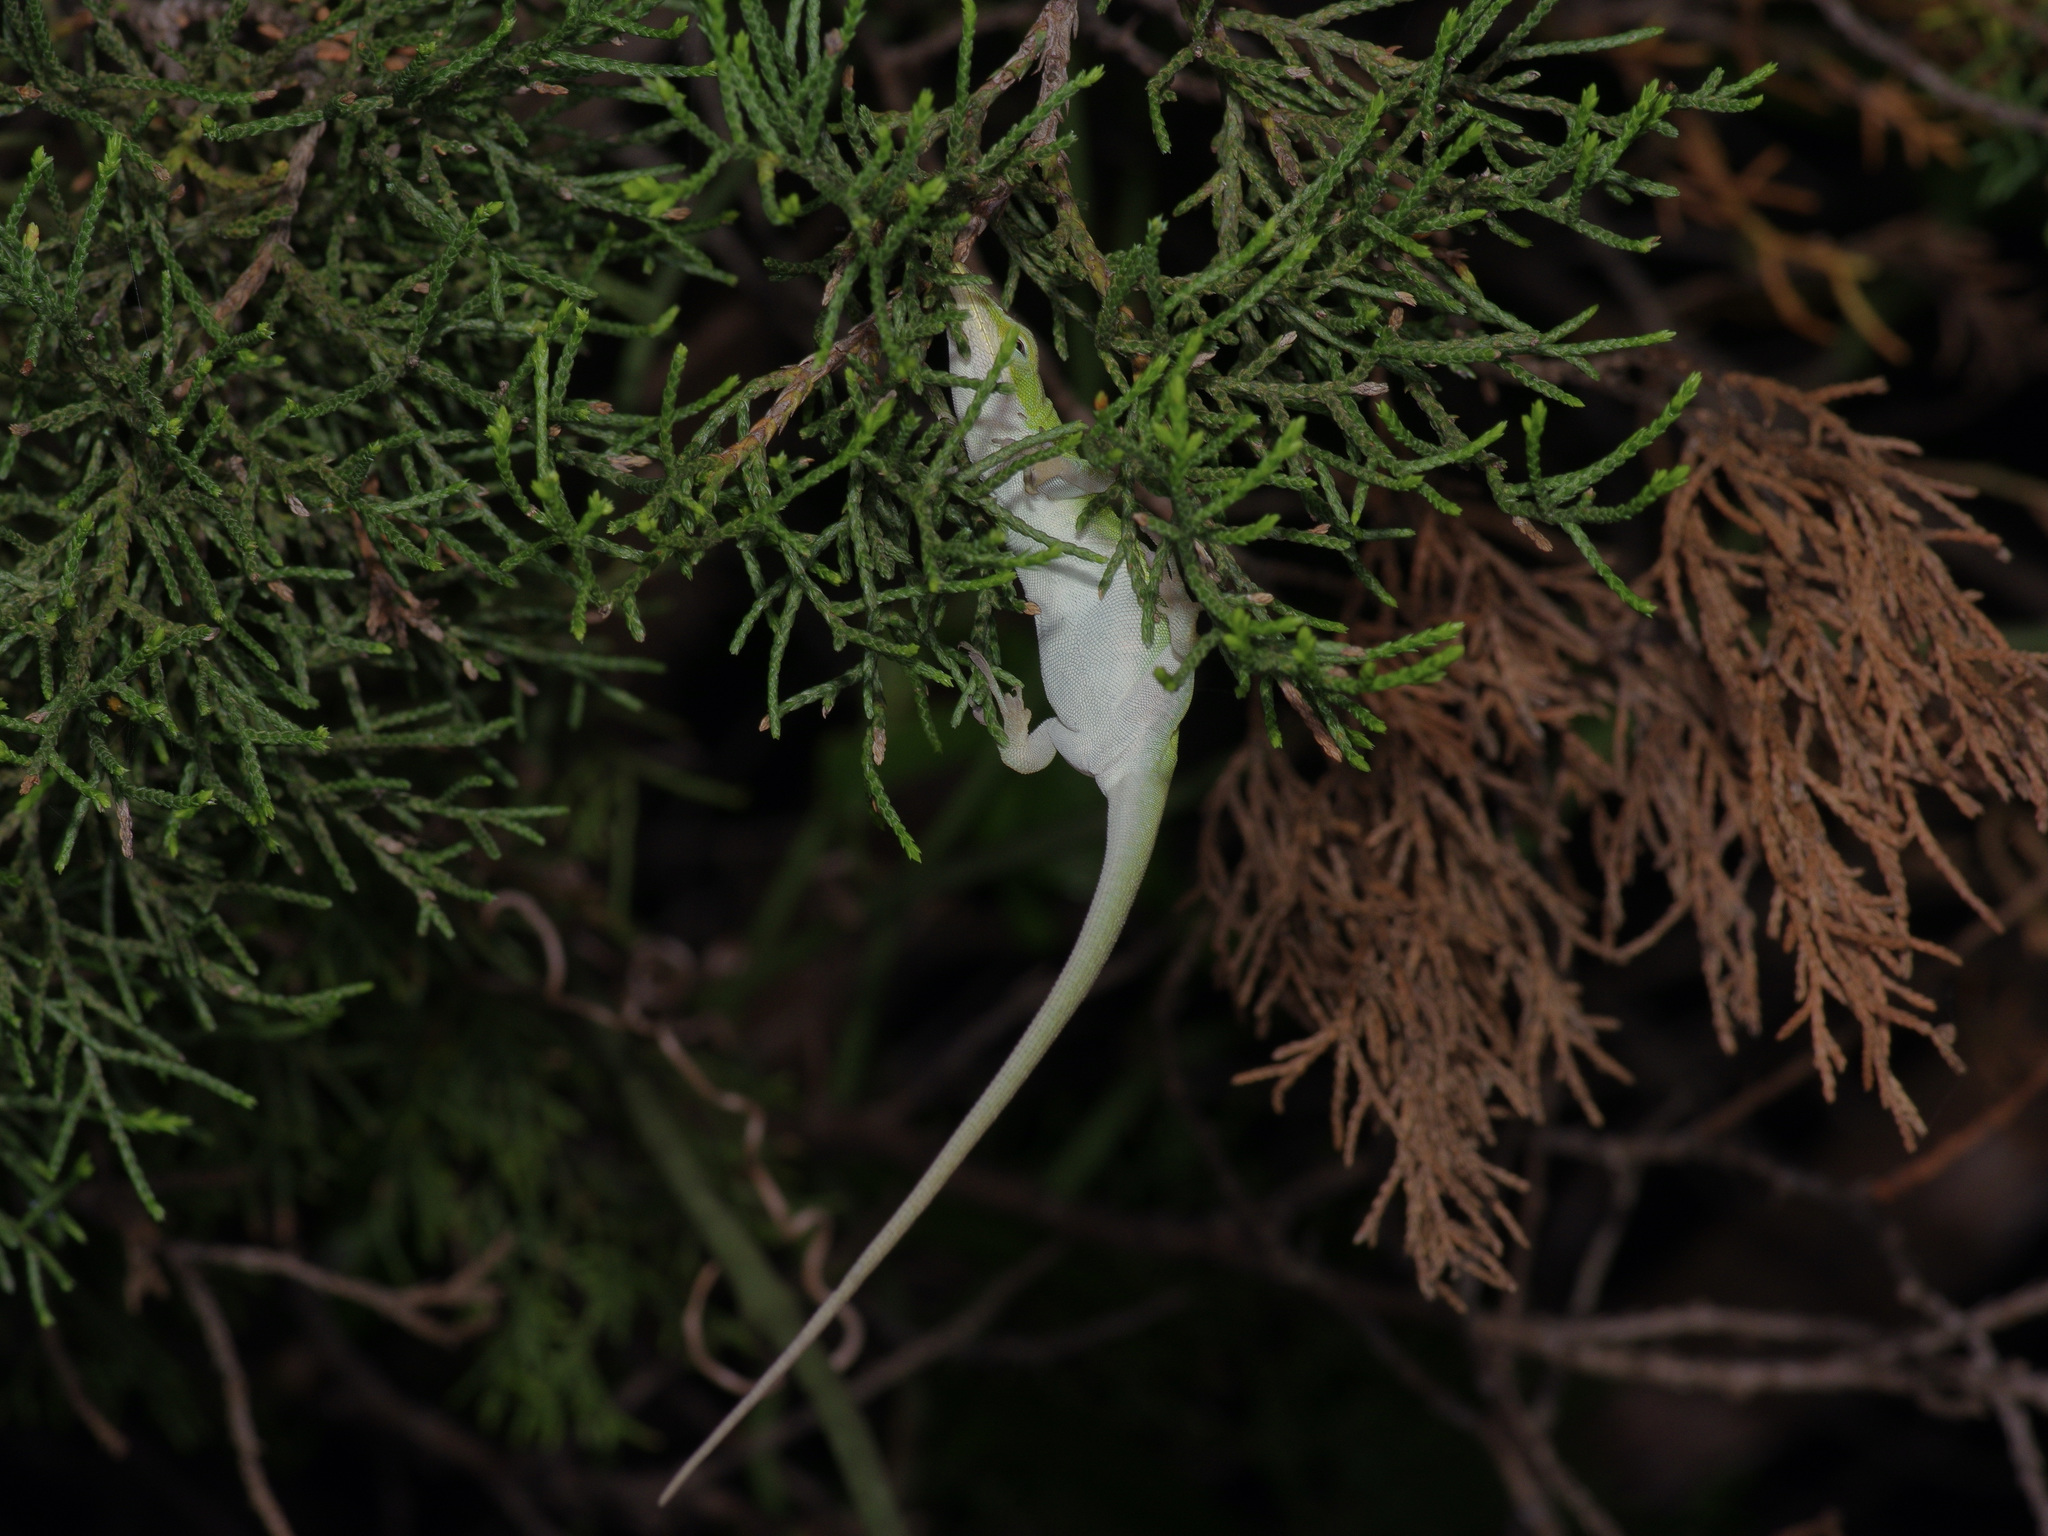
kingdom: Animalia
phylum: Chordata
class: Squamata
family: Dactyloidae
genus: Anolis
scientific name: Anolis carolinensis
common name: Green anole
